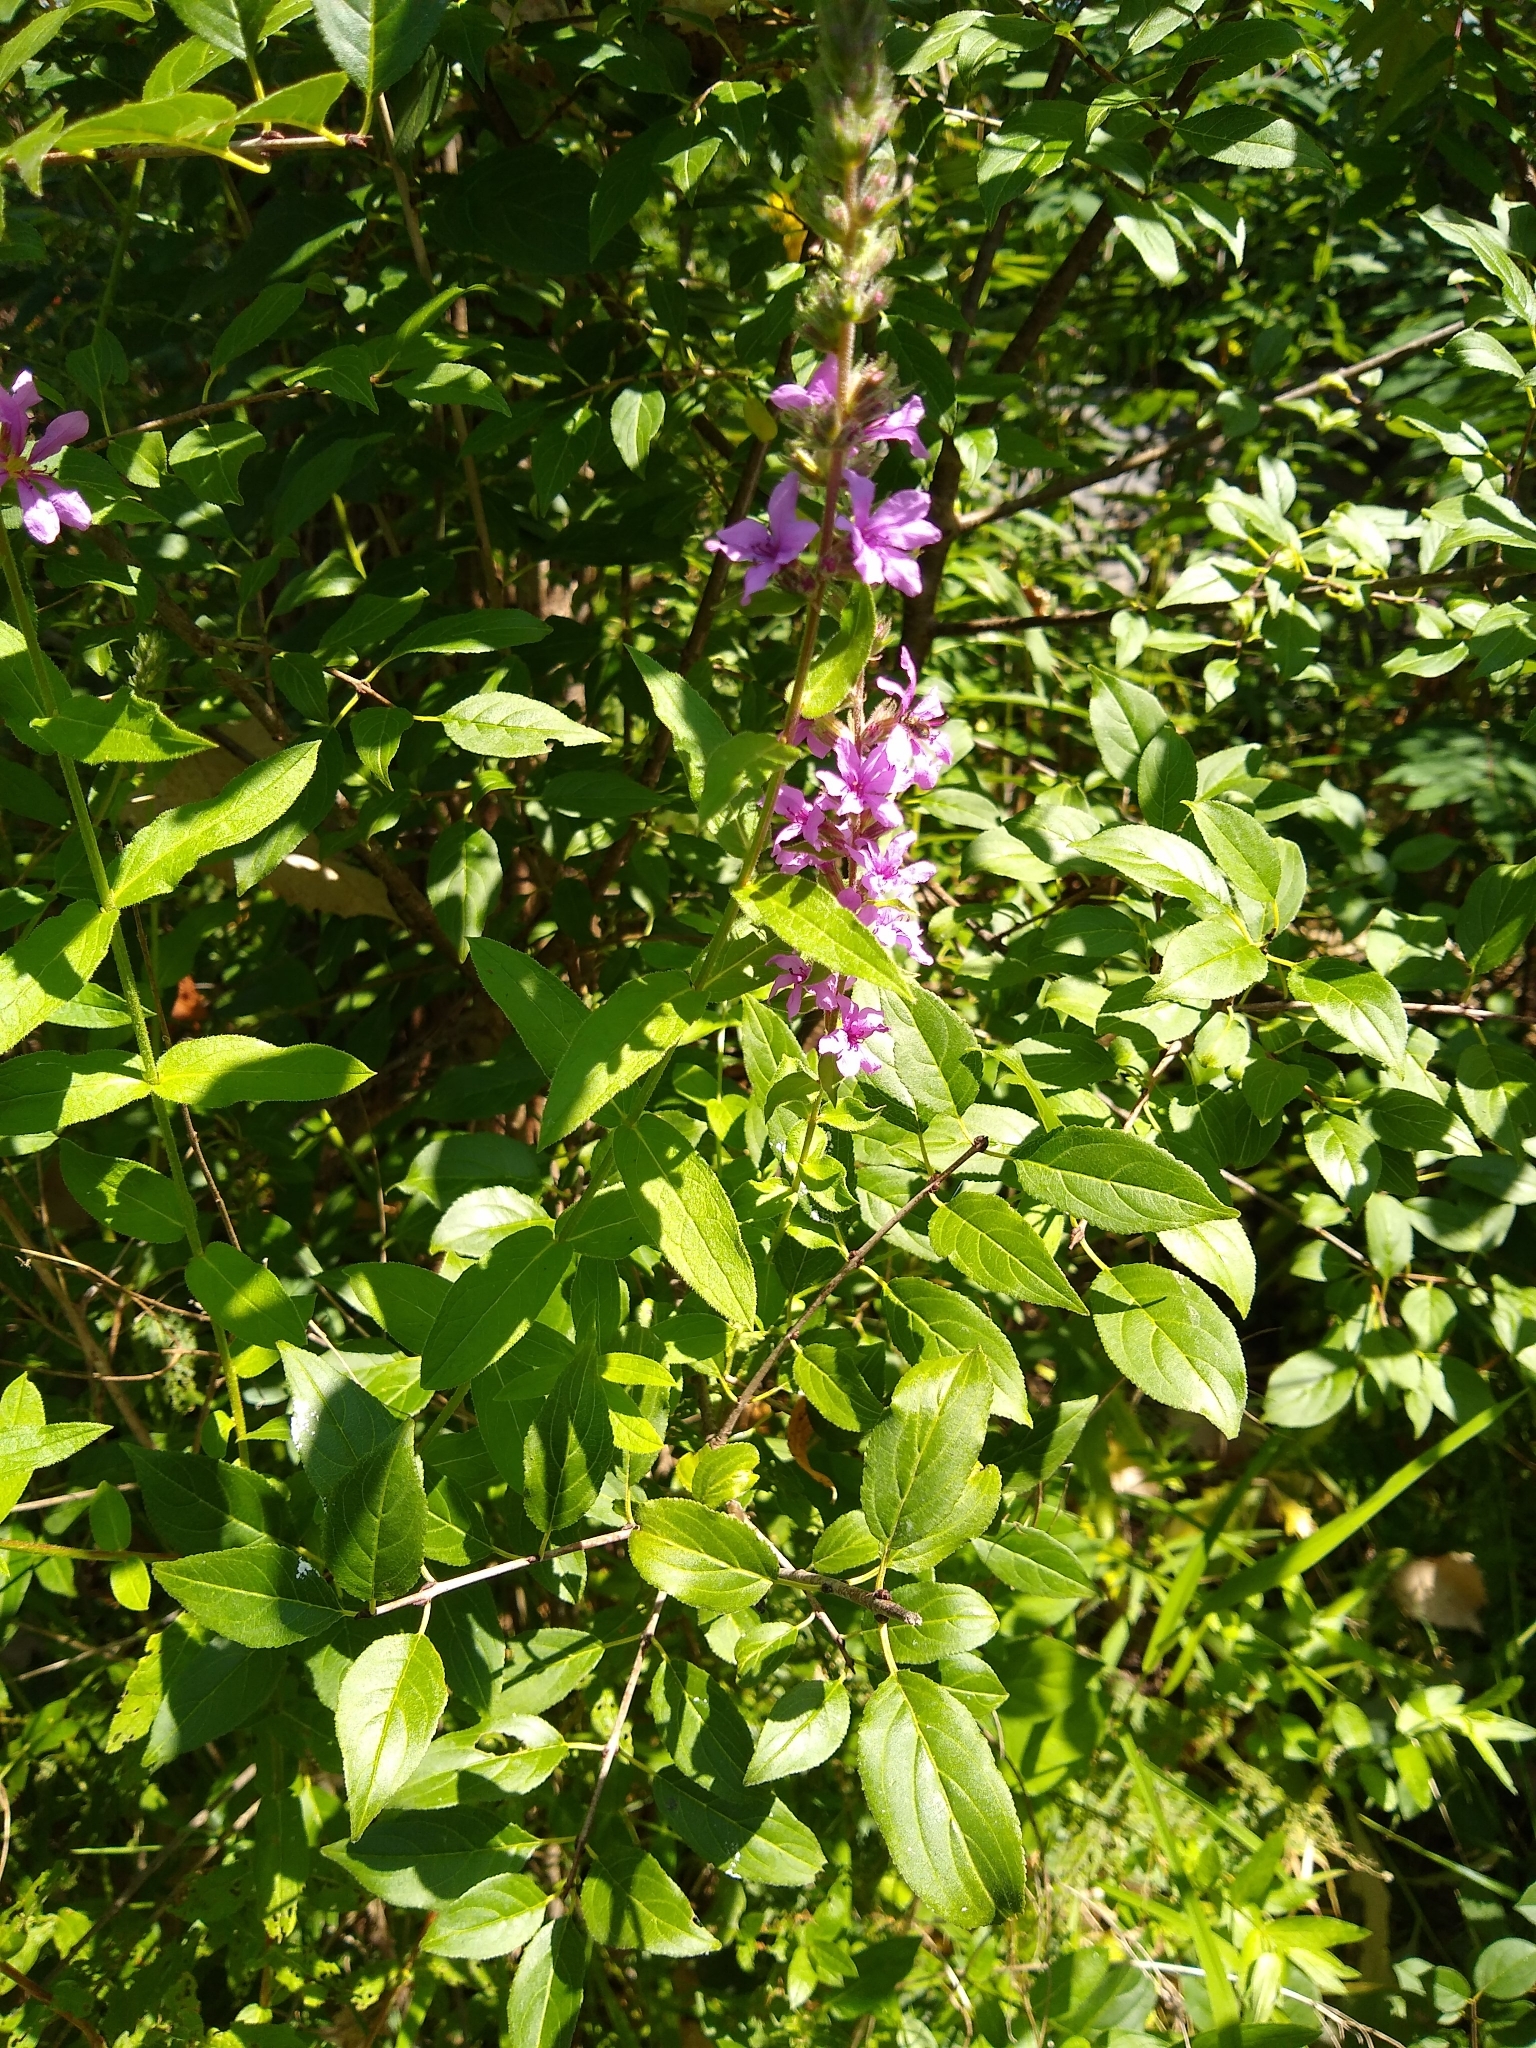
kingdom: Plantae
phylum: Tracheophyta
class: Magnoliopsida
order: Myrtales
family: Lythraceae
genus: Lythrum
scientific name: Lythrum salicaria
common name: Purple loosestrife
